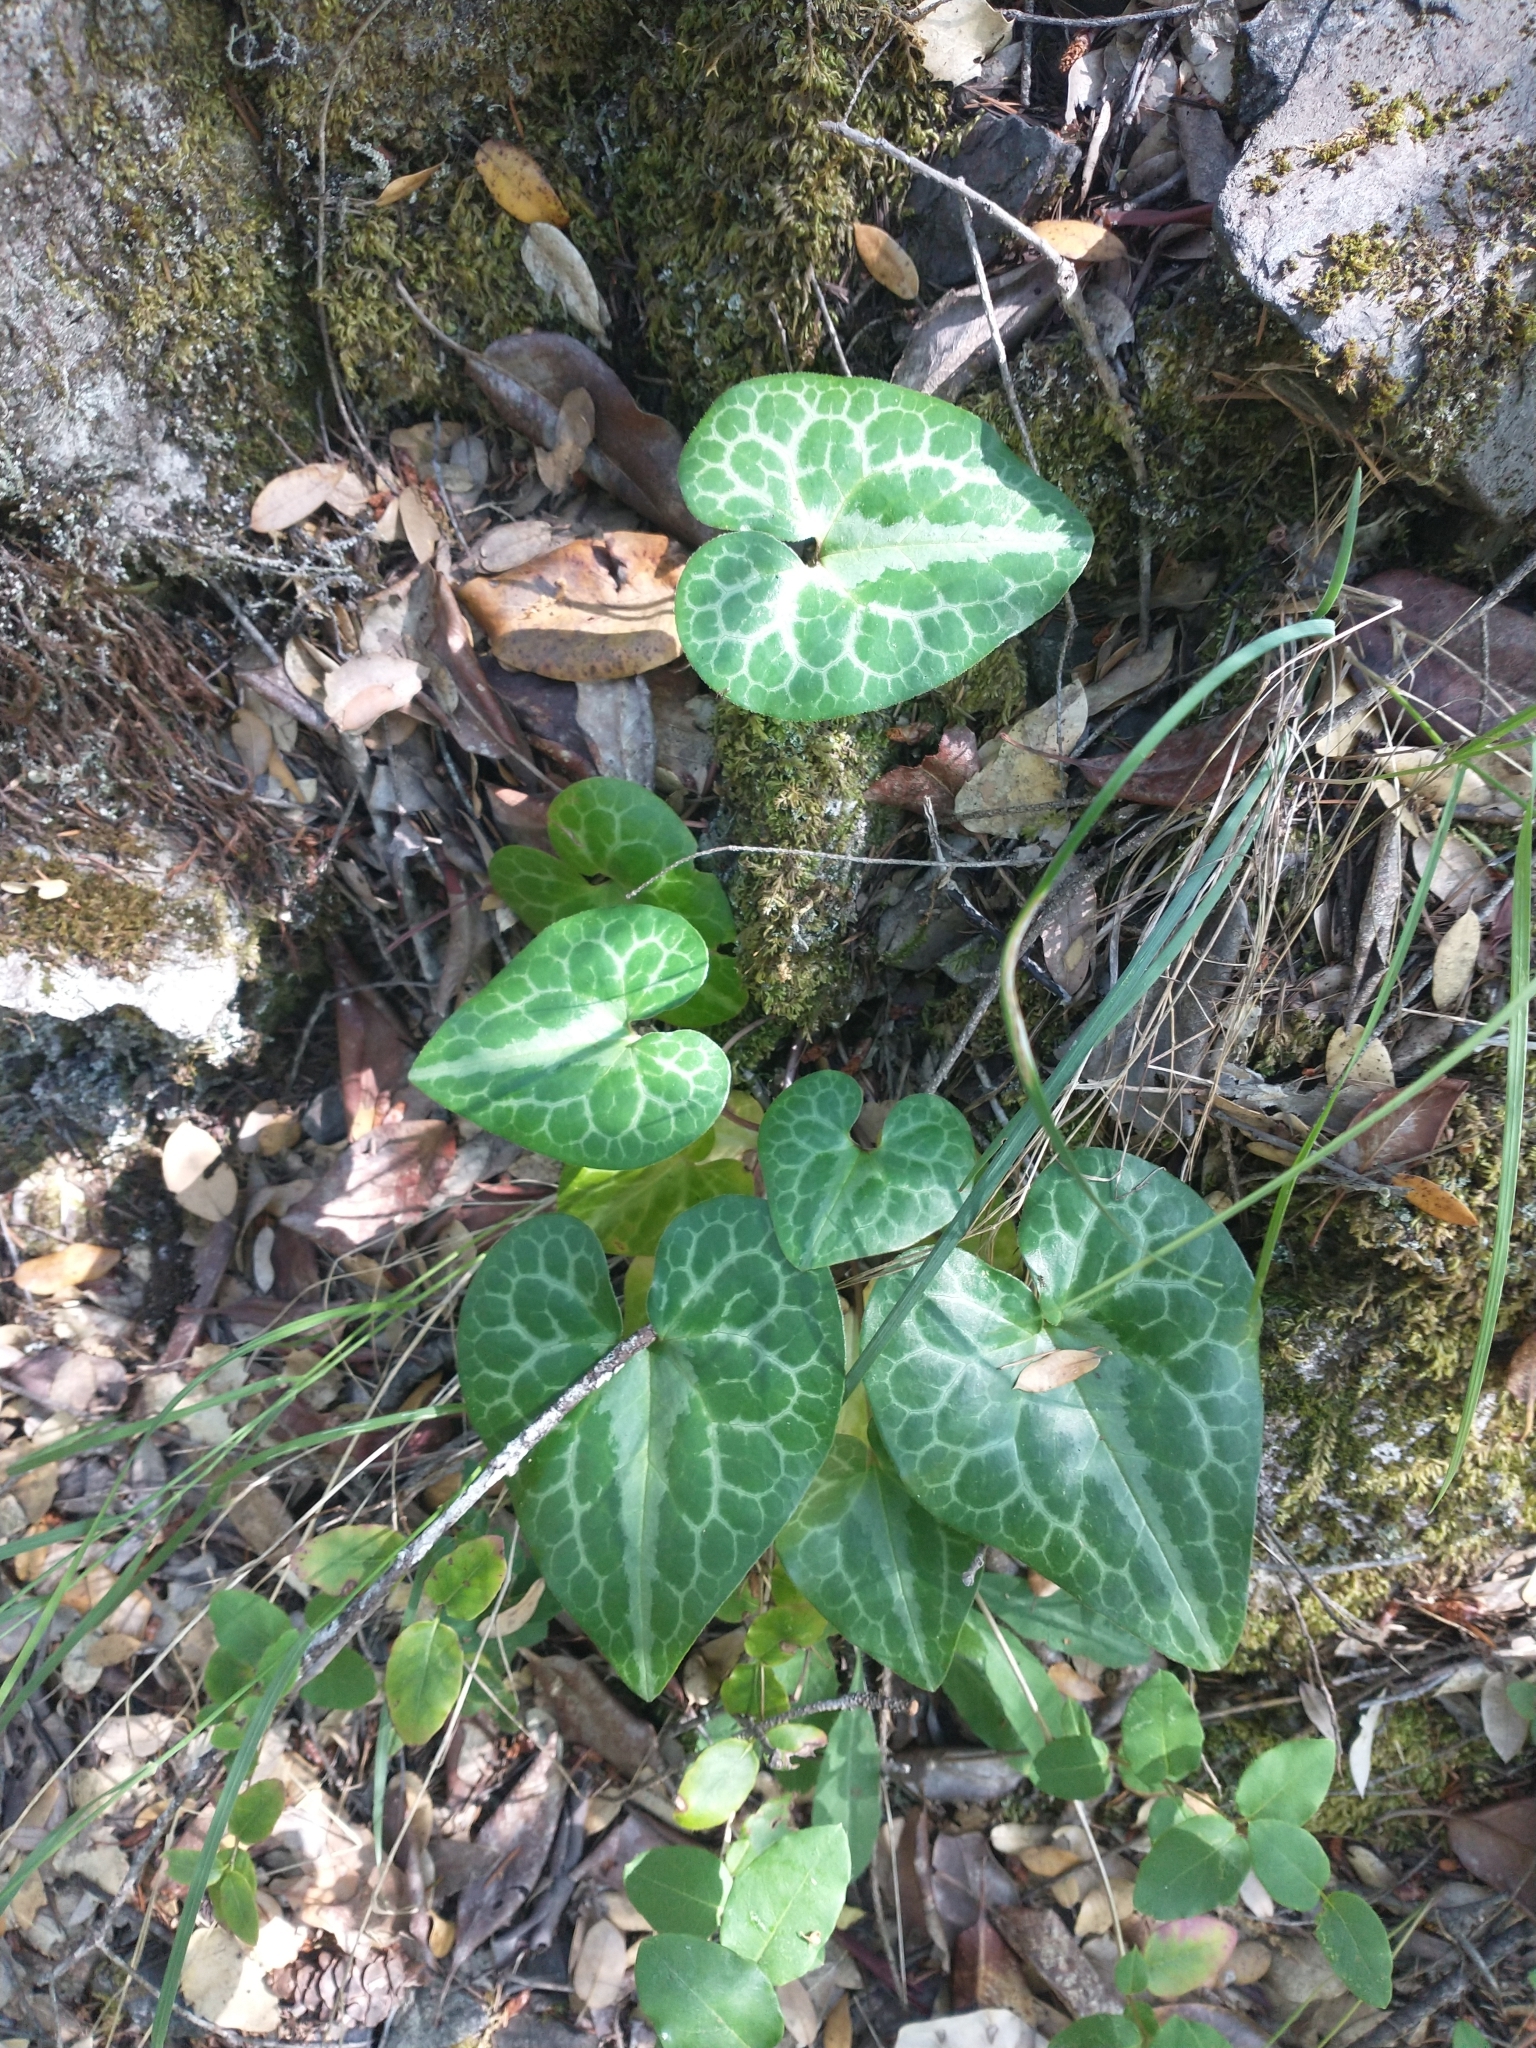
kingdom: Plantae
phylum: Tracheophyta
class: Magnoliopsida
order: Piperales
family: Aristolochiaceae
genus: Asarum
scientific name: Asarum hartwegii
